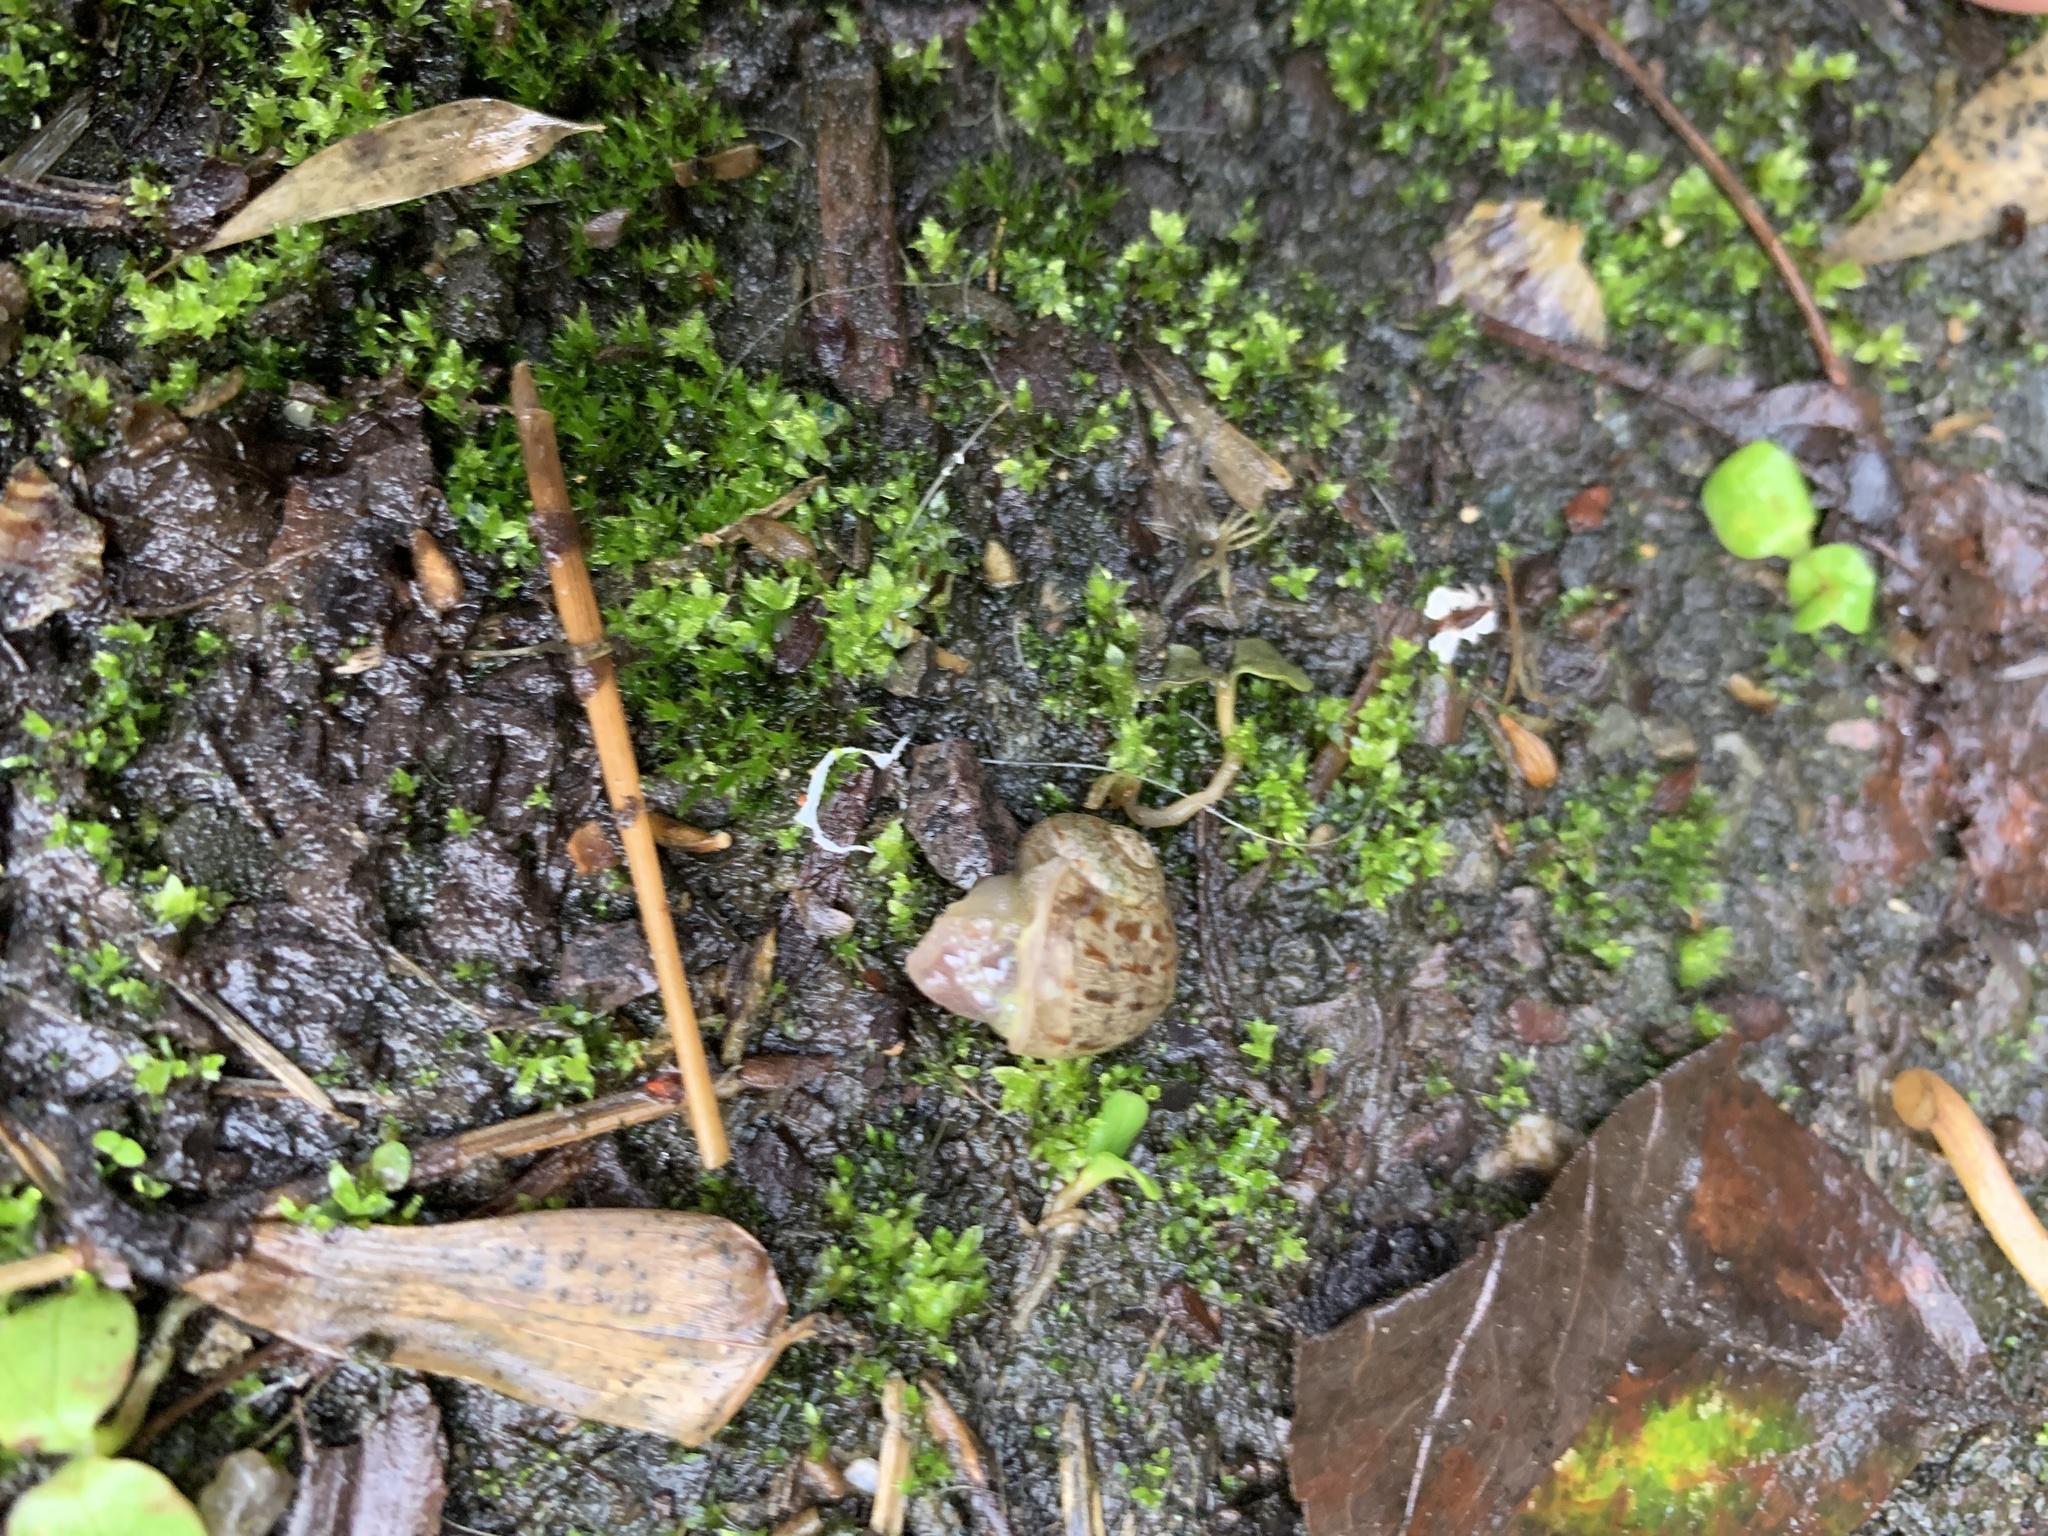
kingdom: Animalia
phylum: Mollusca
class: Gastropoda
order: Stylommatophora
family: Helicidae
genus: Cornu
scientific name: Cornu aspersum
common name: Brown garden snail
